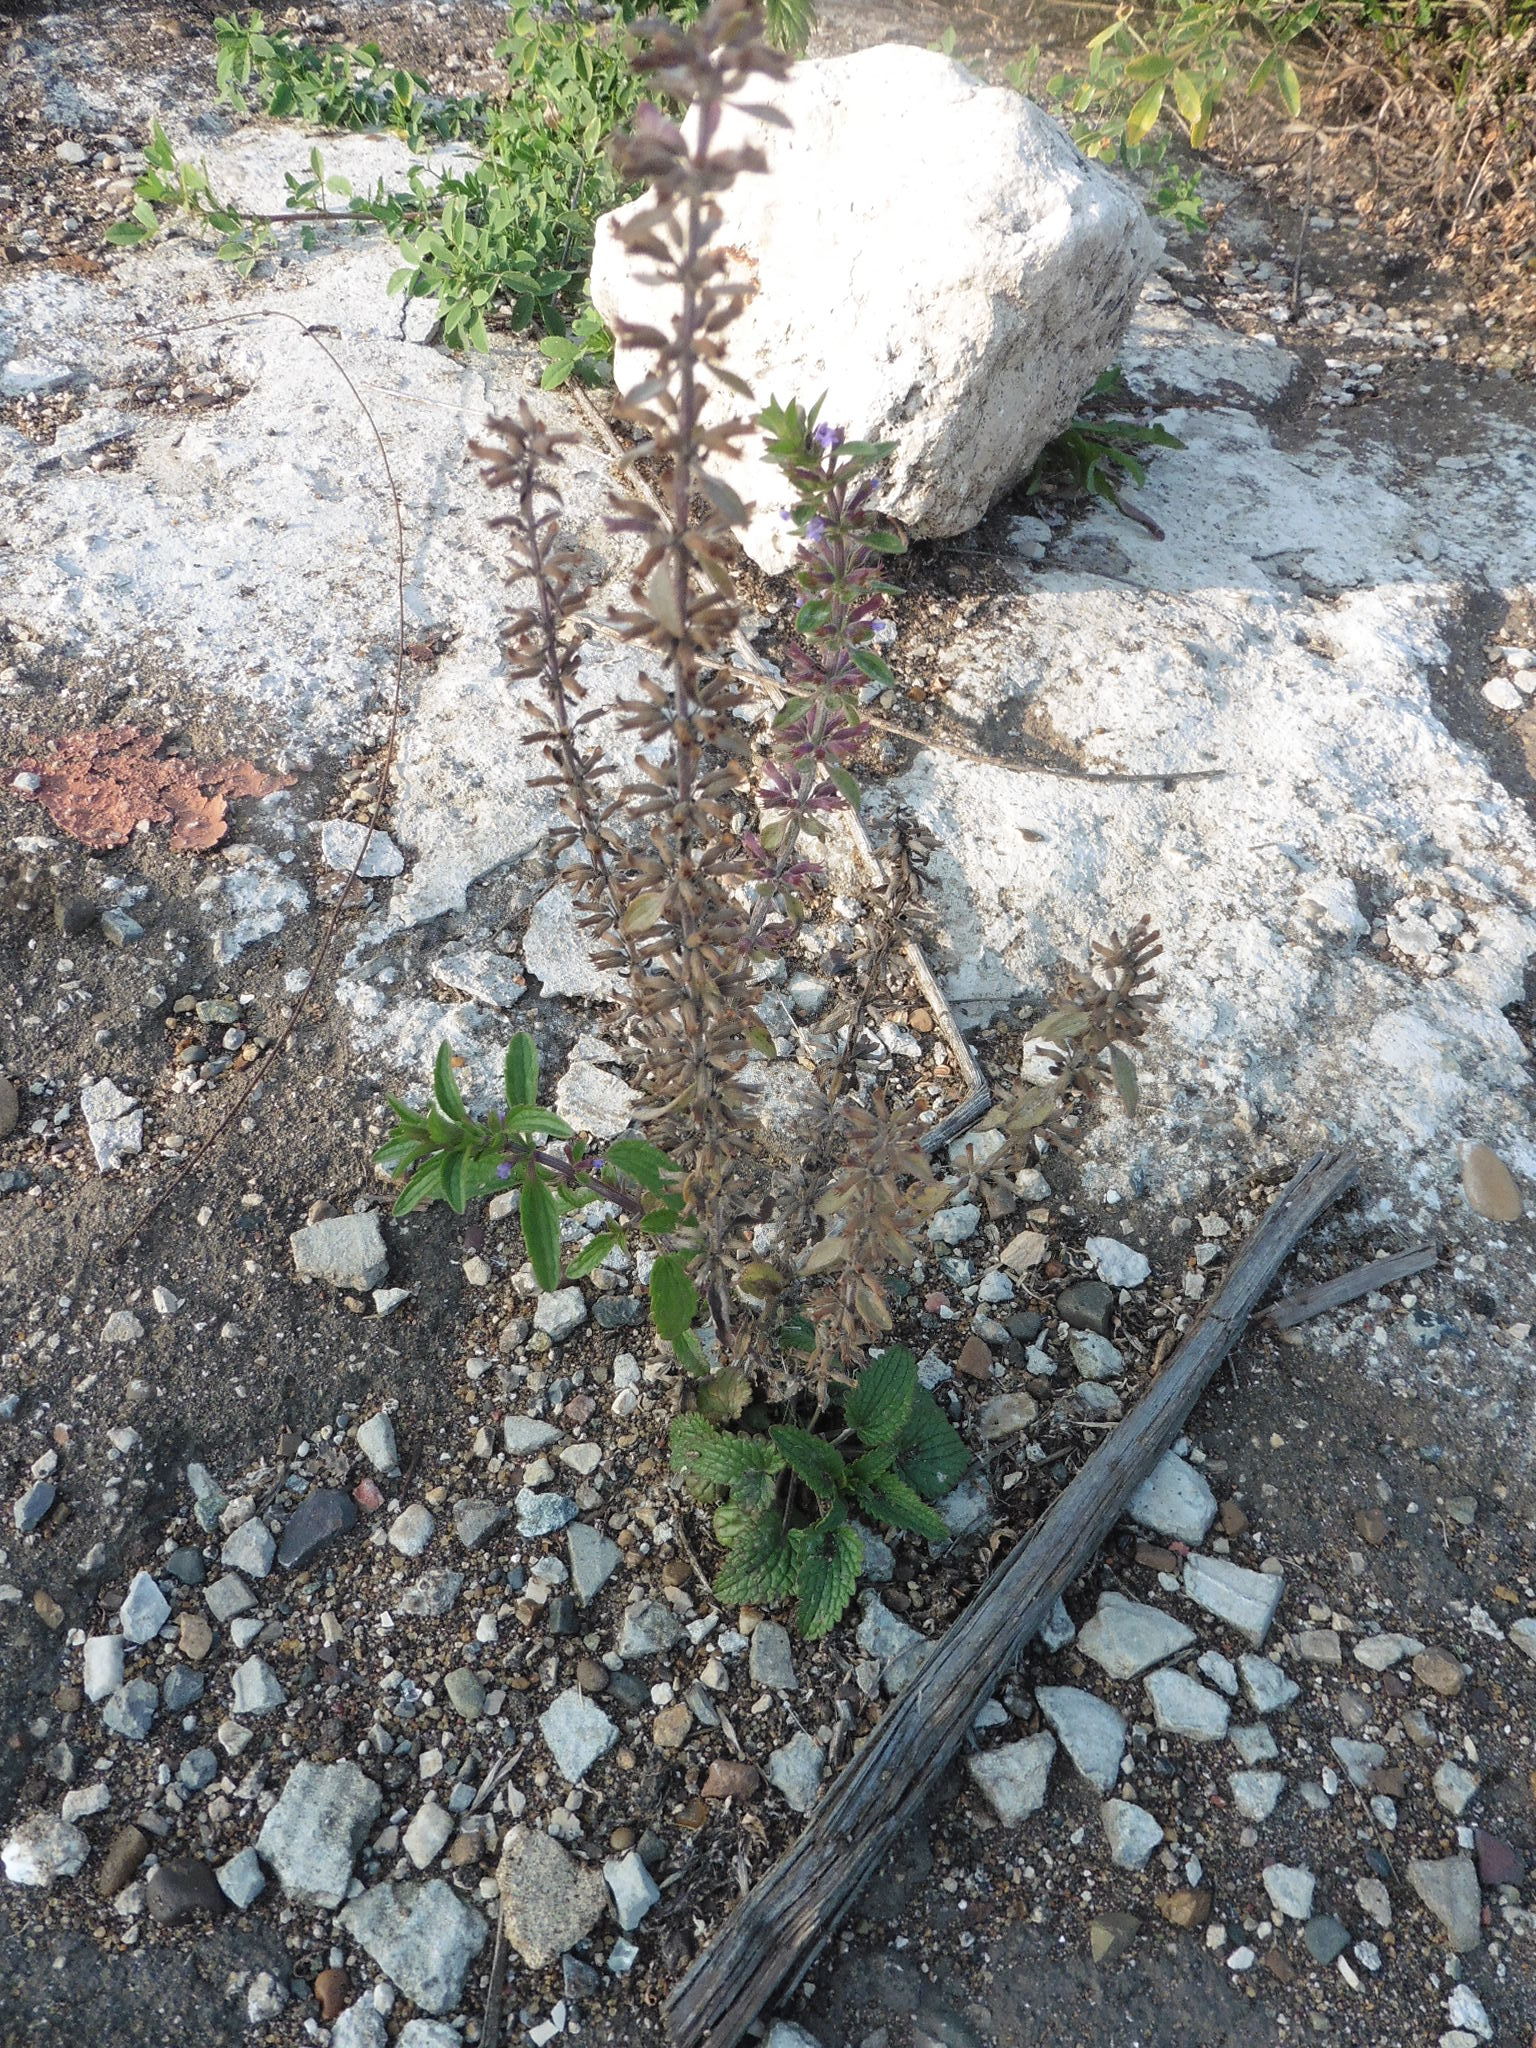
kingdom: Plantae
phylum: Tracheophyta
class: Magnoliopsida
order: Lamiales
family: Lamiaceae
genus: Dracocephalum
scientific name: Dracocephalum thymiflorum
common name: Thymeleaf dragonhead
